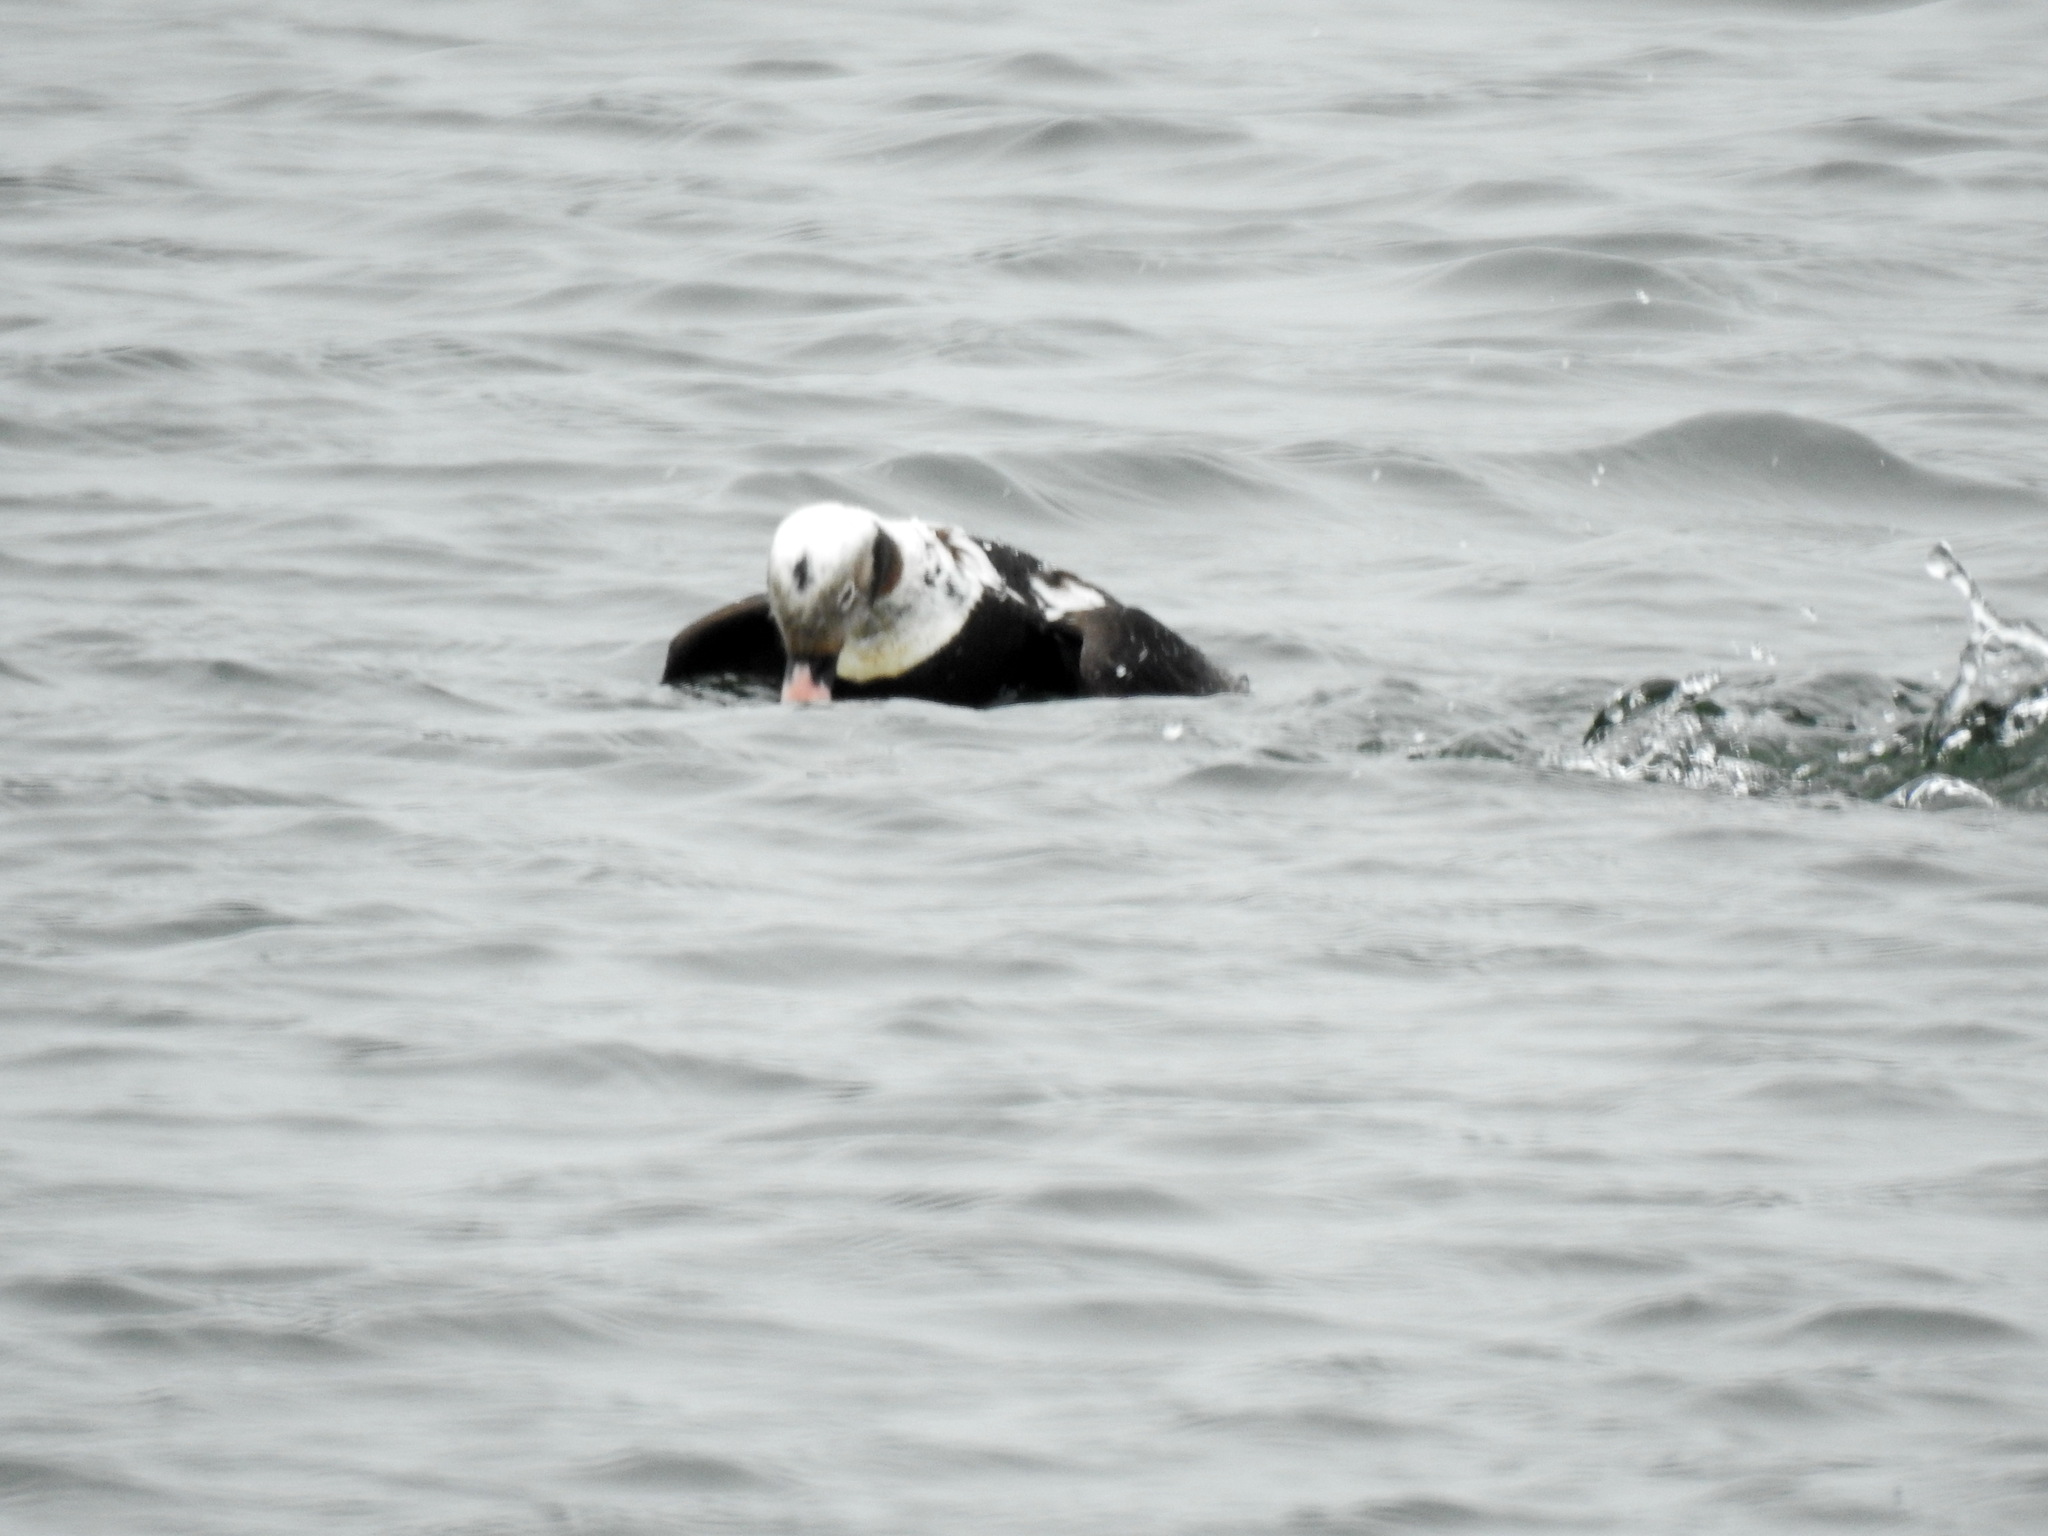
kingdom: Animalia
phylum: Chordata
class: Aves
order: Anseriformes
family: Anatidae
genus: Clangula
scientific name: Clangula hyemalis
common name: Long-tailed duck
